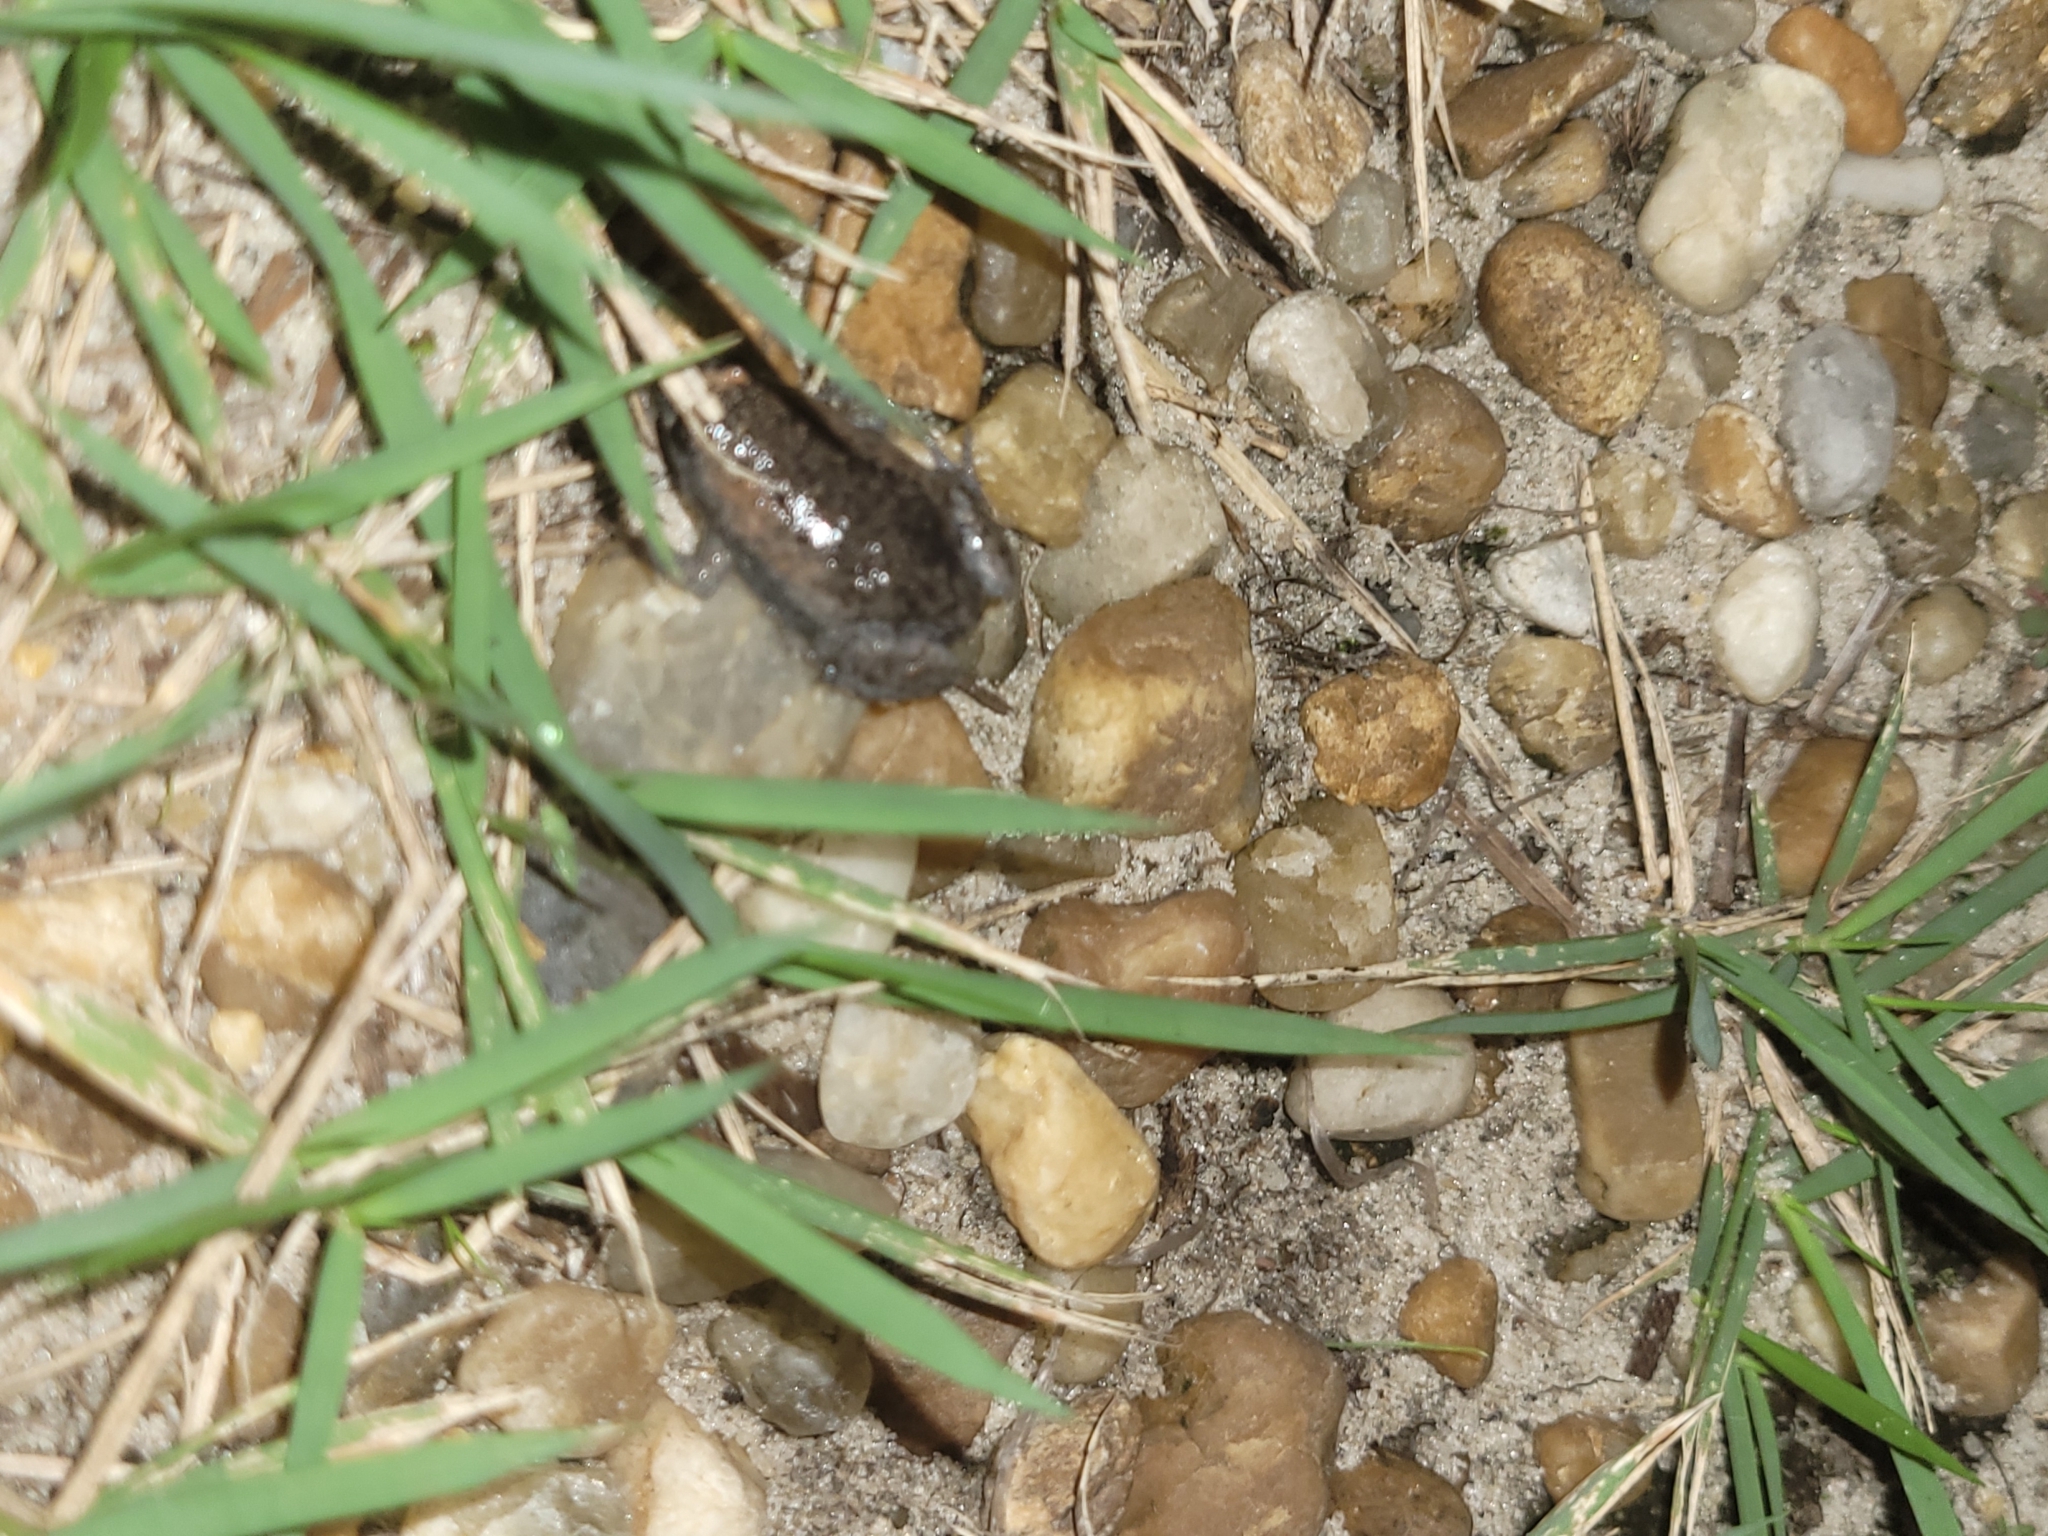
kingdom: Animalia
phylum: Chordata
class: Amphibia
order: Anura
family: Microhylidae
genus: Gastrophryne
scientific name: Gastrophryne carolinensis
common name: Eastern narrowmouth toad
